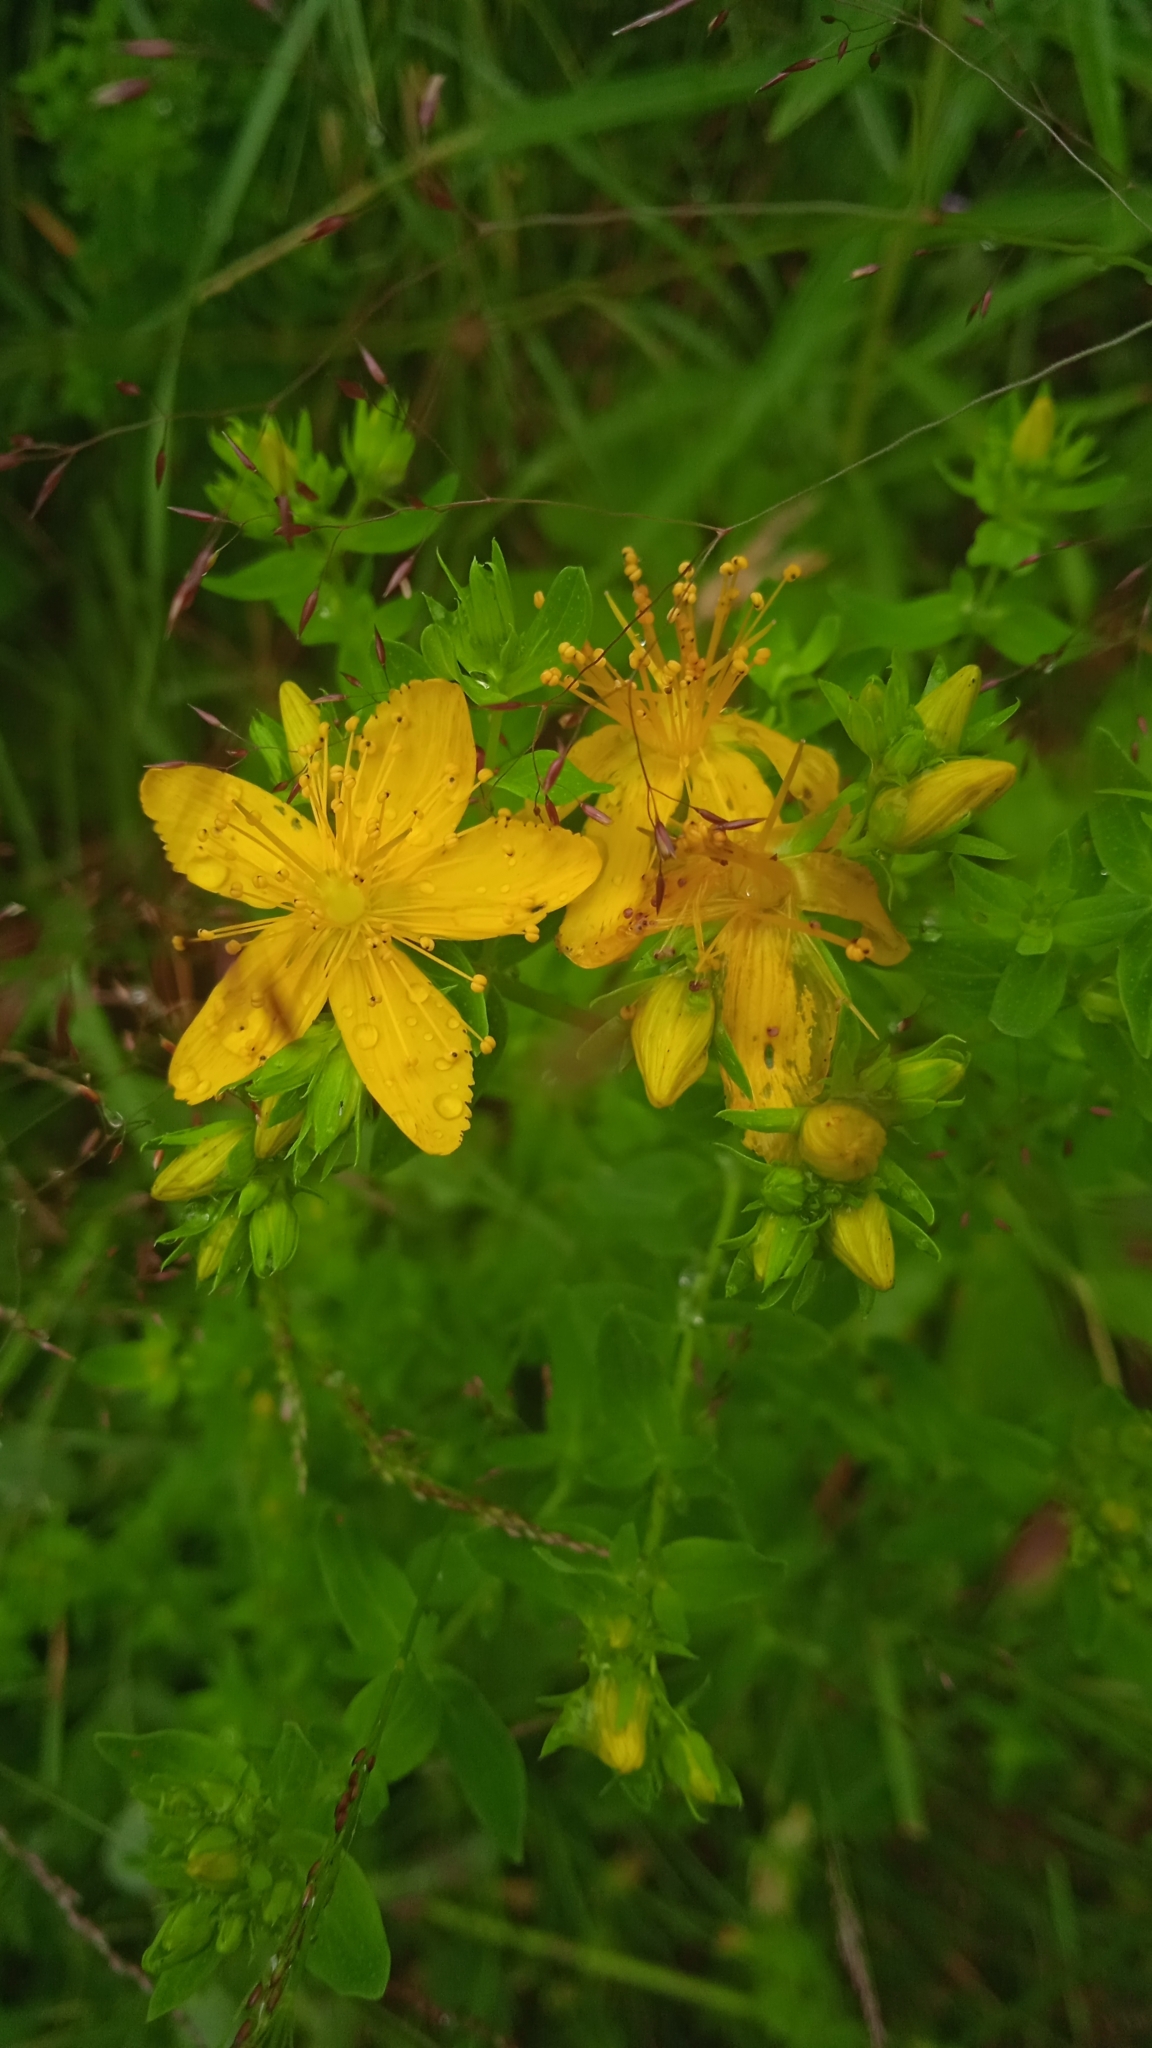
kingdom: Plantae
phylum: Tracheophyta
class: Magnoliopsida
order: Malpighiales
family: Hypericaceae
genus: Hypericum
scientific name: Hypericum perforatum
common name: Common st. johnswort
